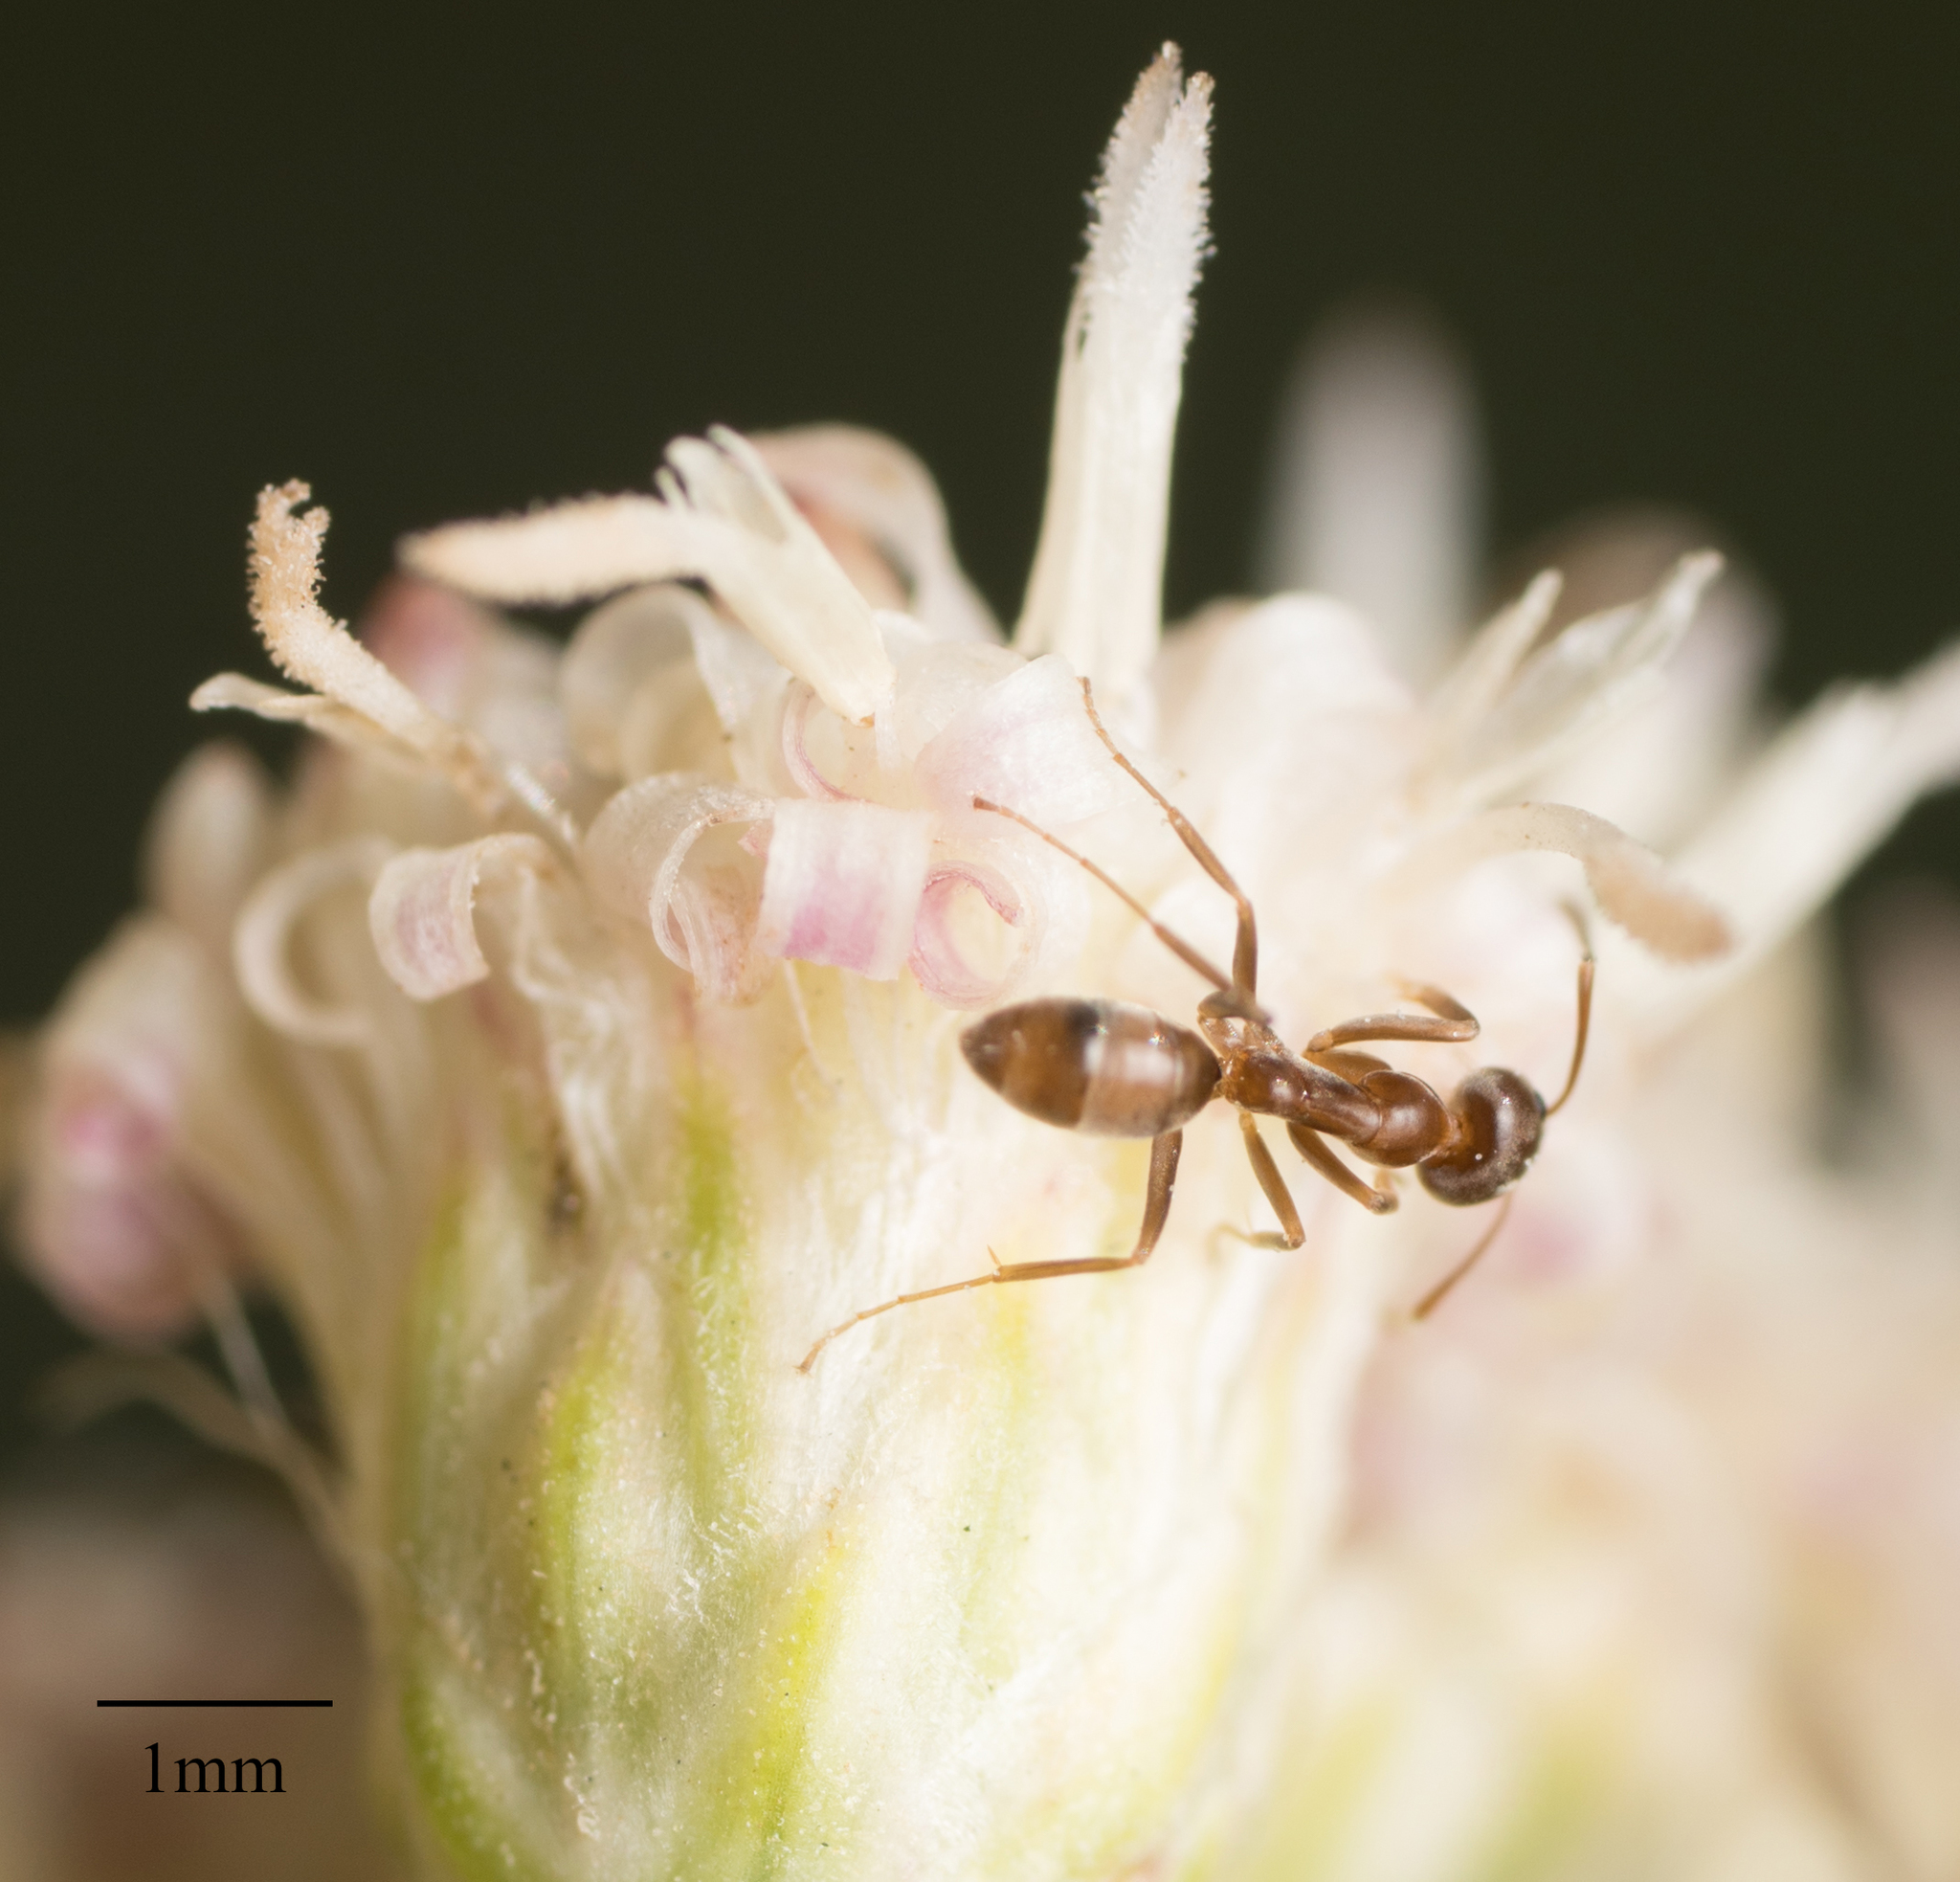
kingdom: Animalia
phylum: Arthropoda
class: Insecta
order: Hymenoptera
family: Formicidae
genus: Linepithema
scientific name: Linepithema humile
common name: Argentine ant
